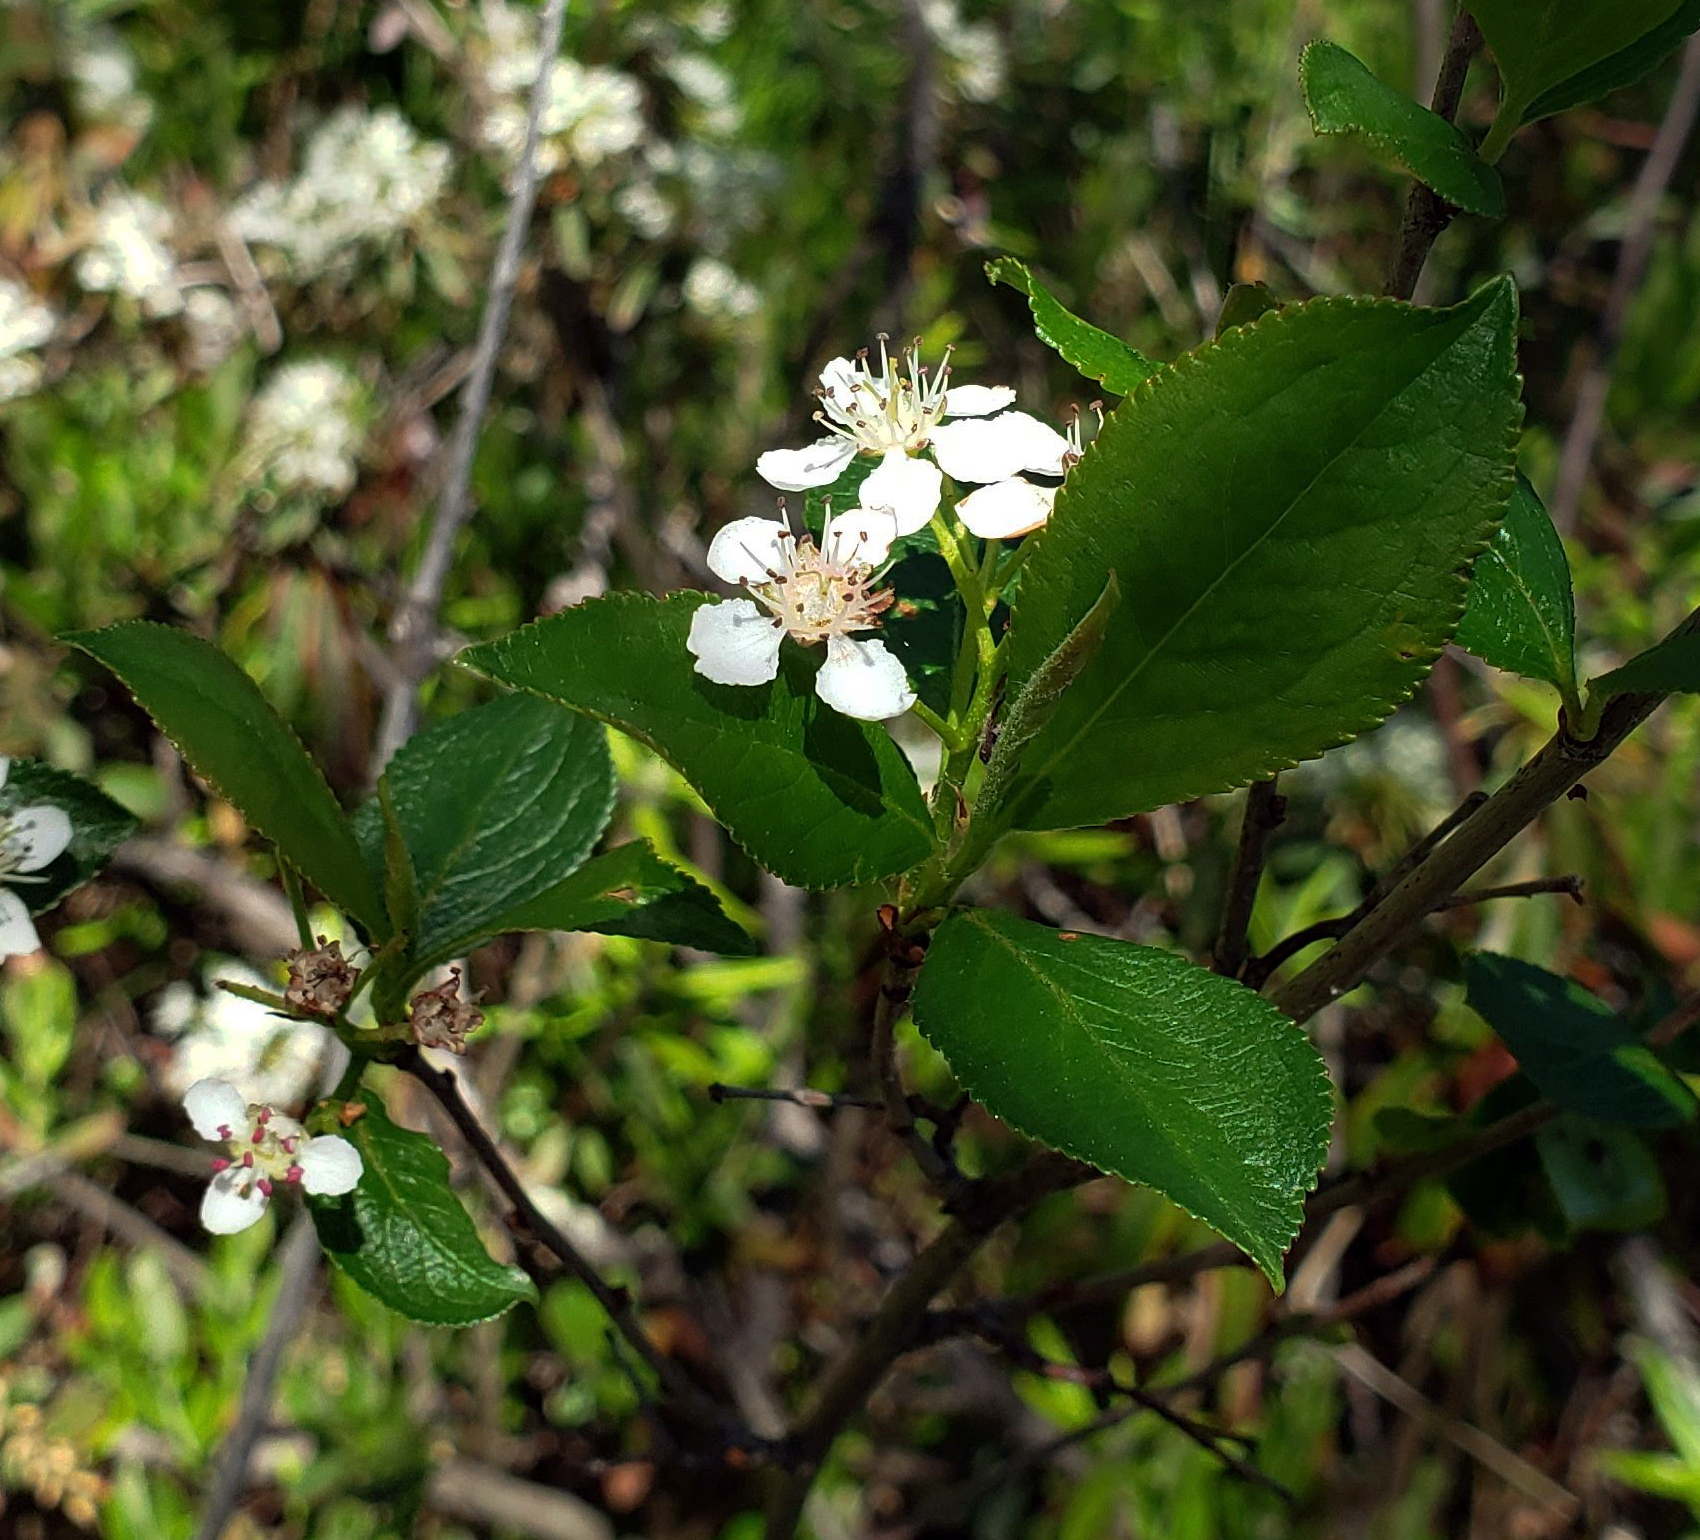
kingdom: Plantae
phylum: Tracheophyta
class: Magnoliopsida
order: Rosales
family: Rosaceae
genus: Aronia
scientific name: Aronia melanocarpa
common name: Black chokeberry
